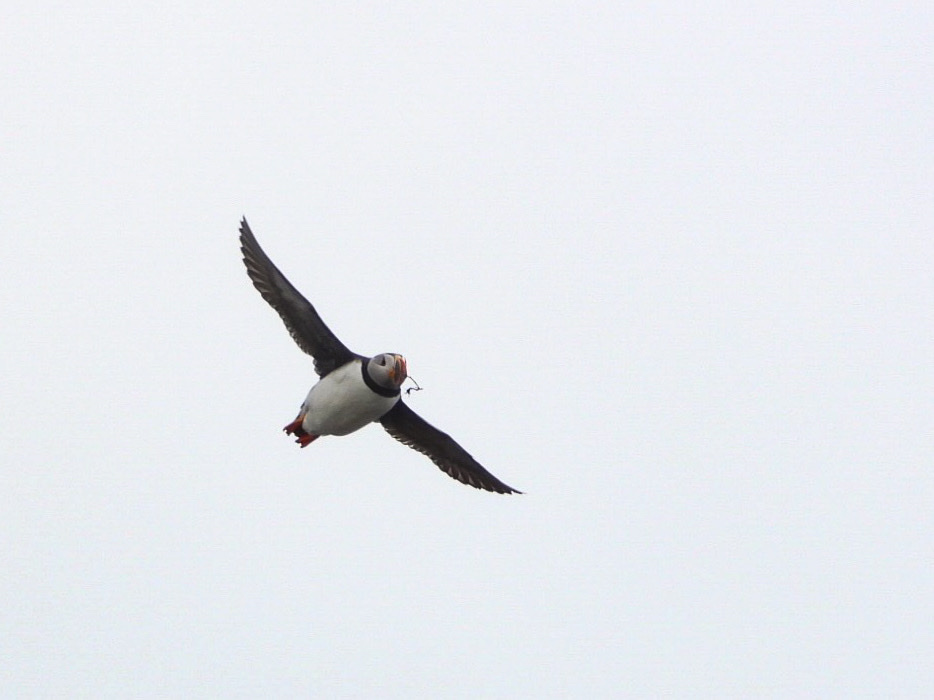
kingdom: Animalia
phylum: Chordata
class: Aves
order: Charadriiformes
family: Alcidae
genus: Fratercula
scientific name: Fratercula arctica
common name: Atlantic puffin
